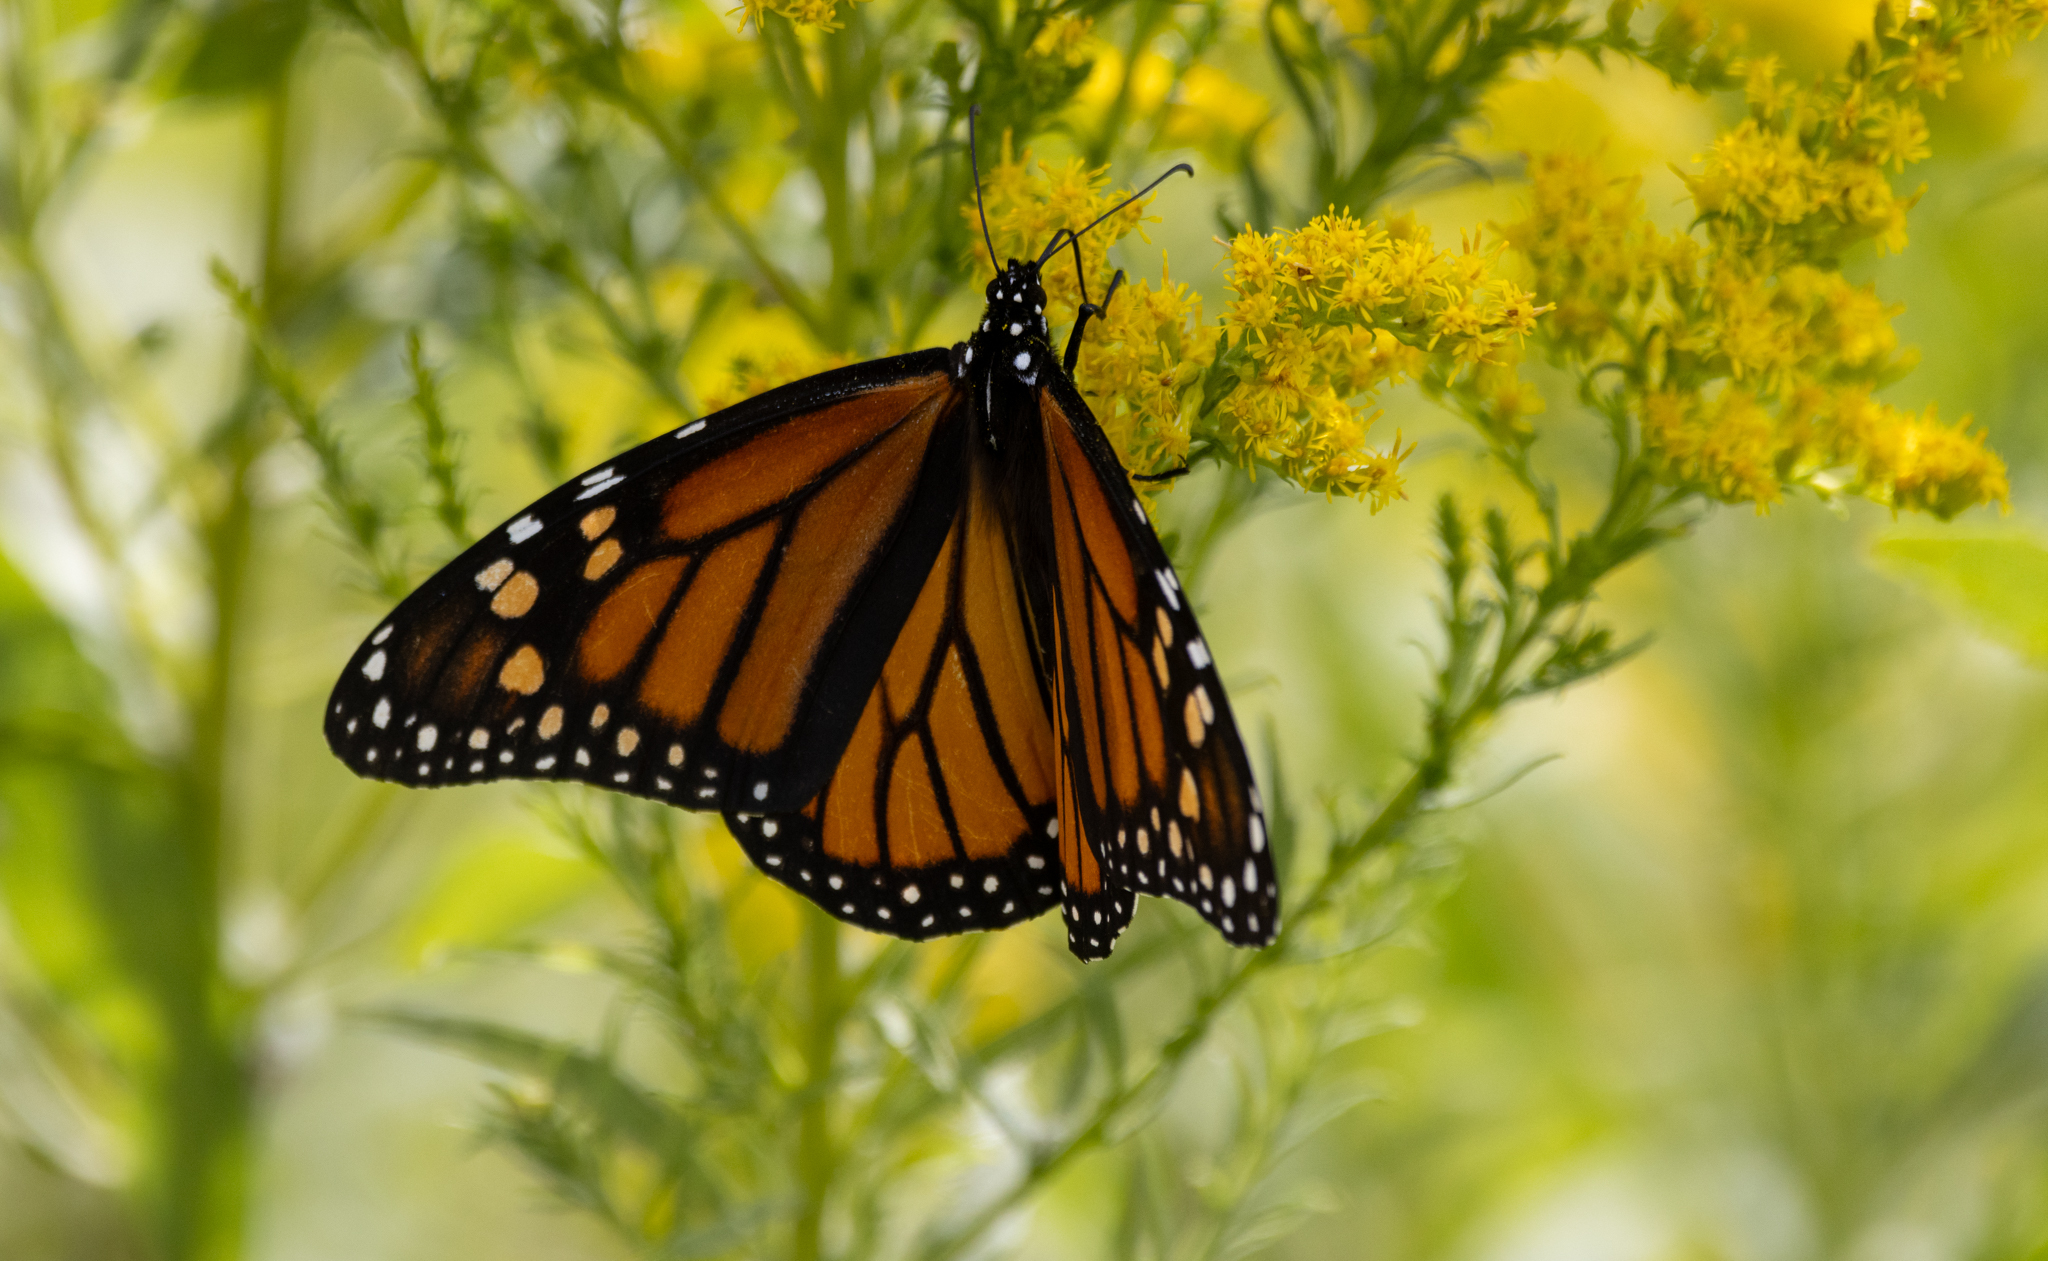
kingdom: Animalia
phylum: Arthropoda
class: Insecta
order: Lepidoptera
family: Nymphalidae
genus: Danaus
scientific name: Danaus plexippus
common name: Monarch
